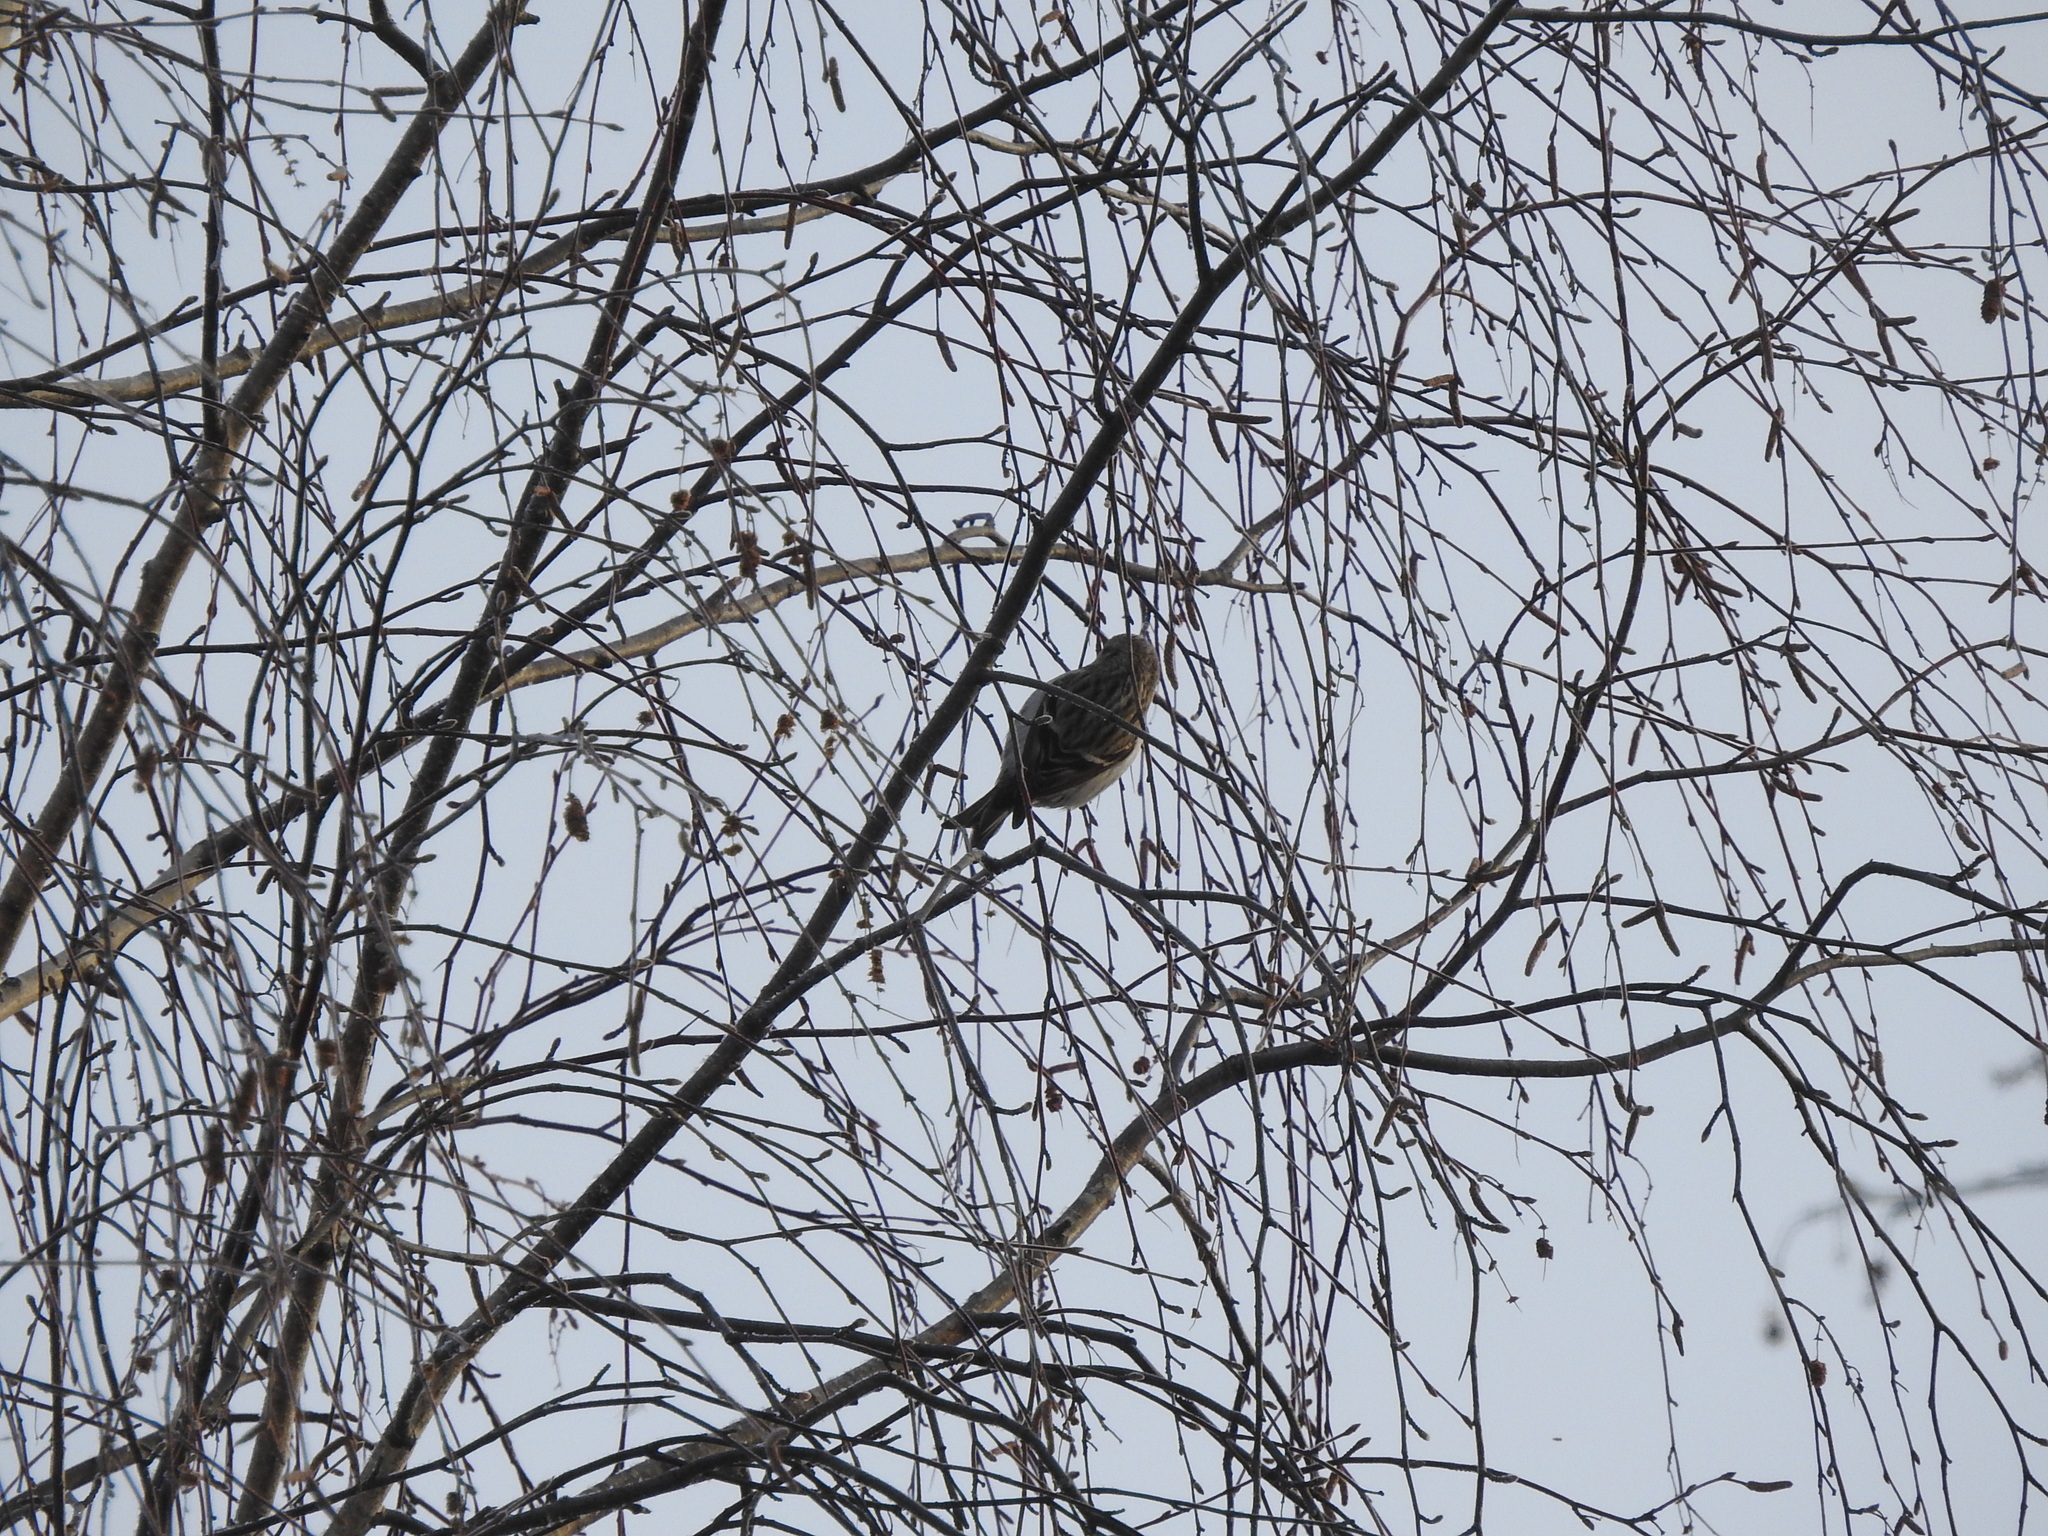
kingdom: Animalia
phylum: Chordata
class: Aves
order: Passeriformes
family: Fringillidae
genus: Acanthis
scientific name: Acanthis flammea
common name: Common redpoll
